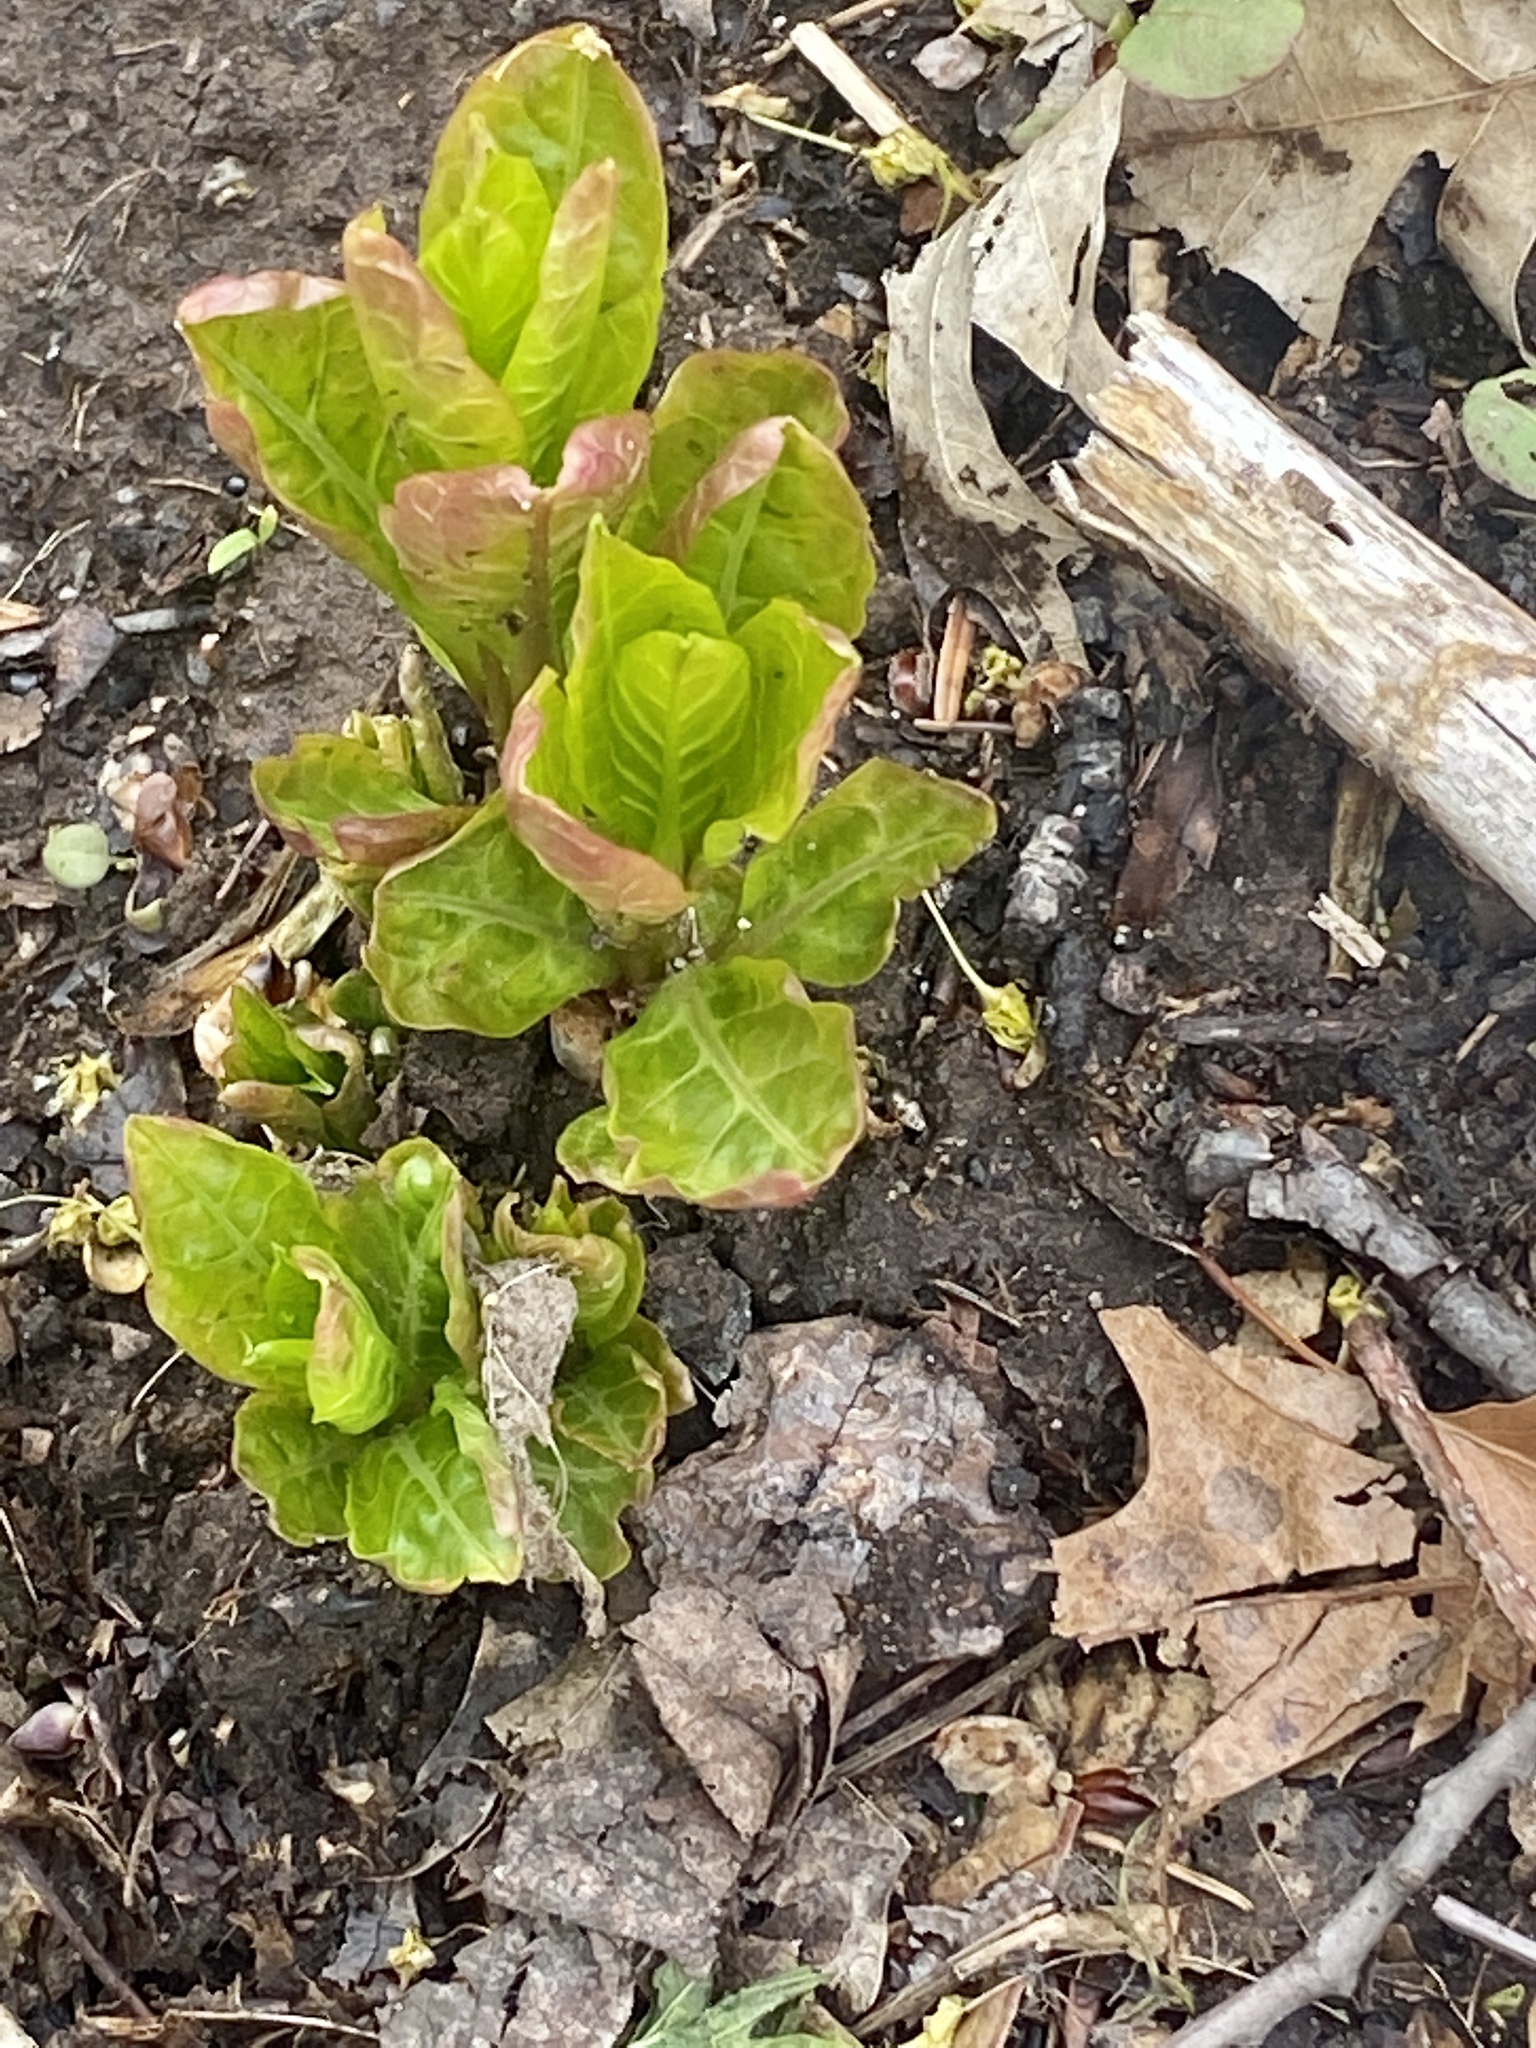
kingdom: Plantae
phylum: Tracheophyta
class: Magnoliopsida
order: Caryophyllales
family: Phytolaccaceae
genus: Phytolacca
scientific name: Phytolacca americana
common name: American pokeweed
